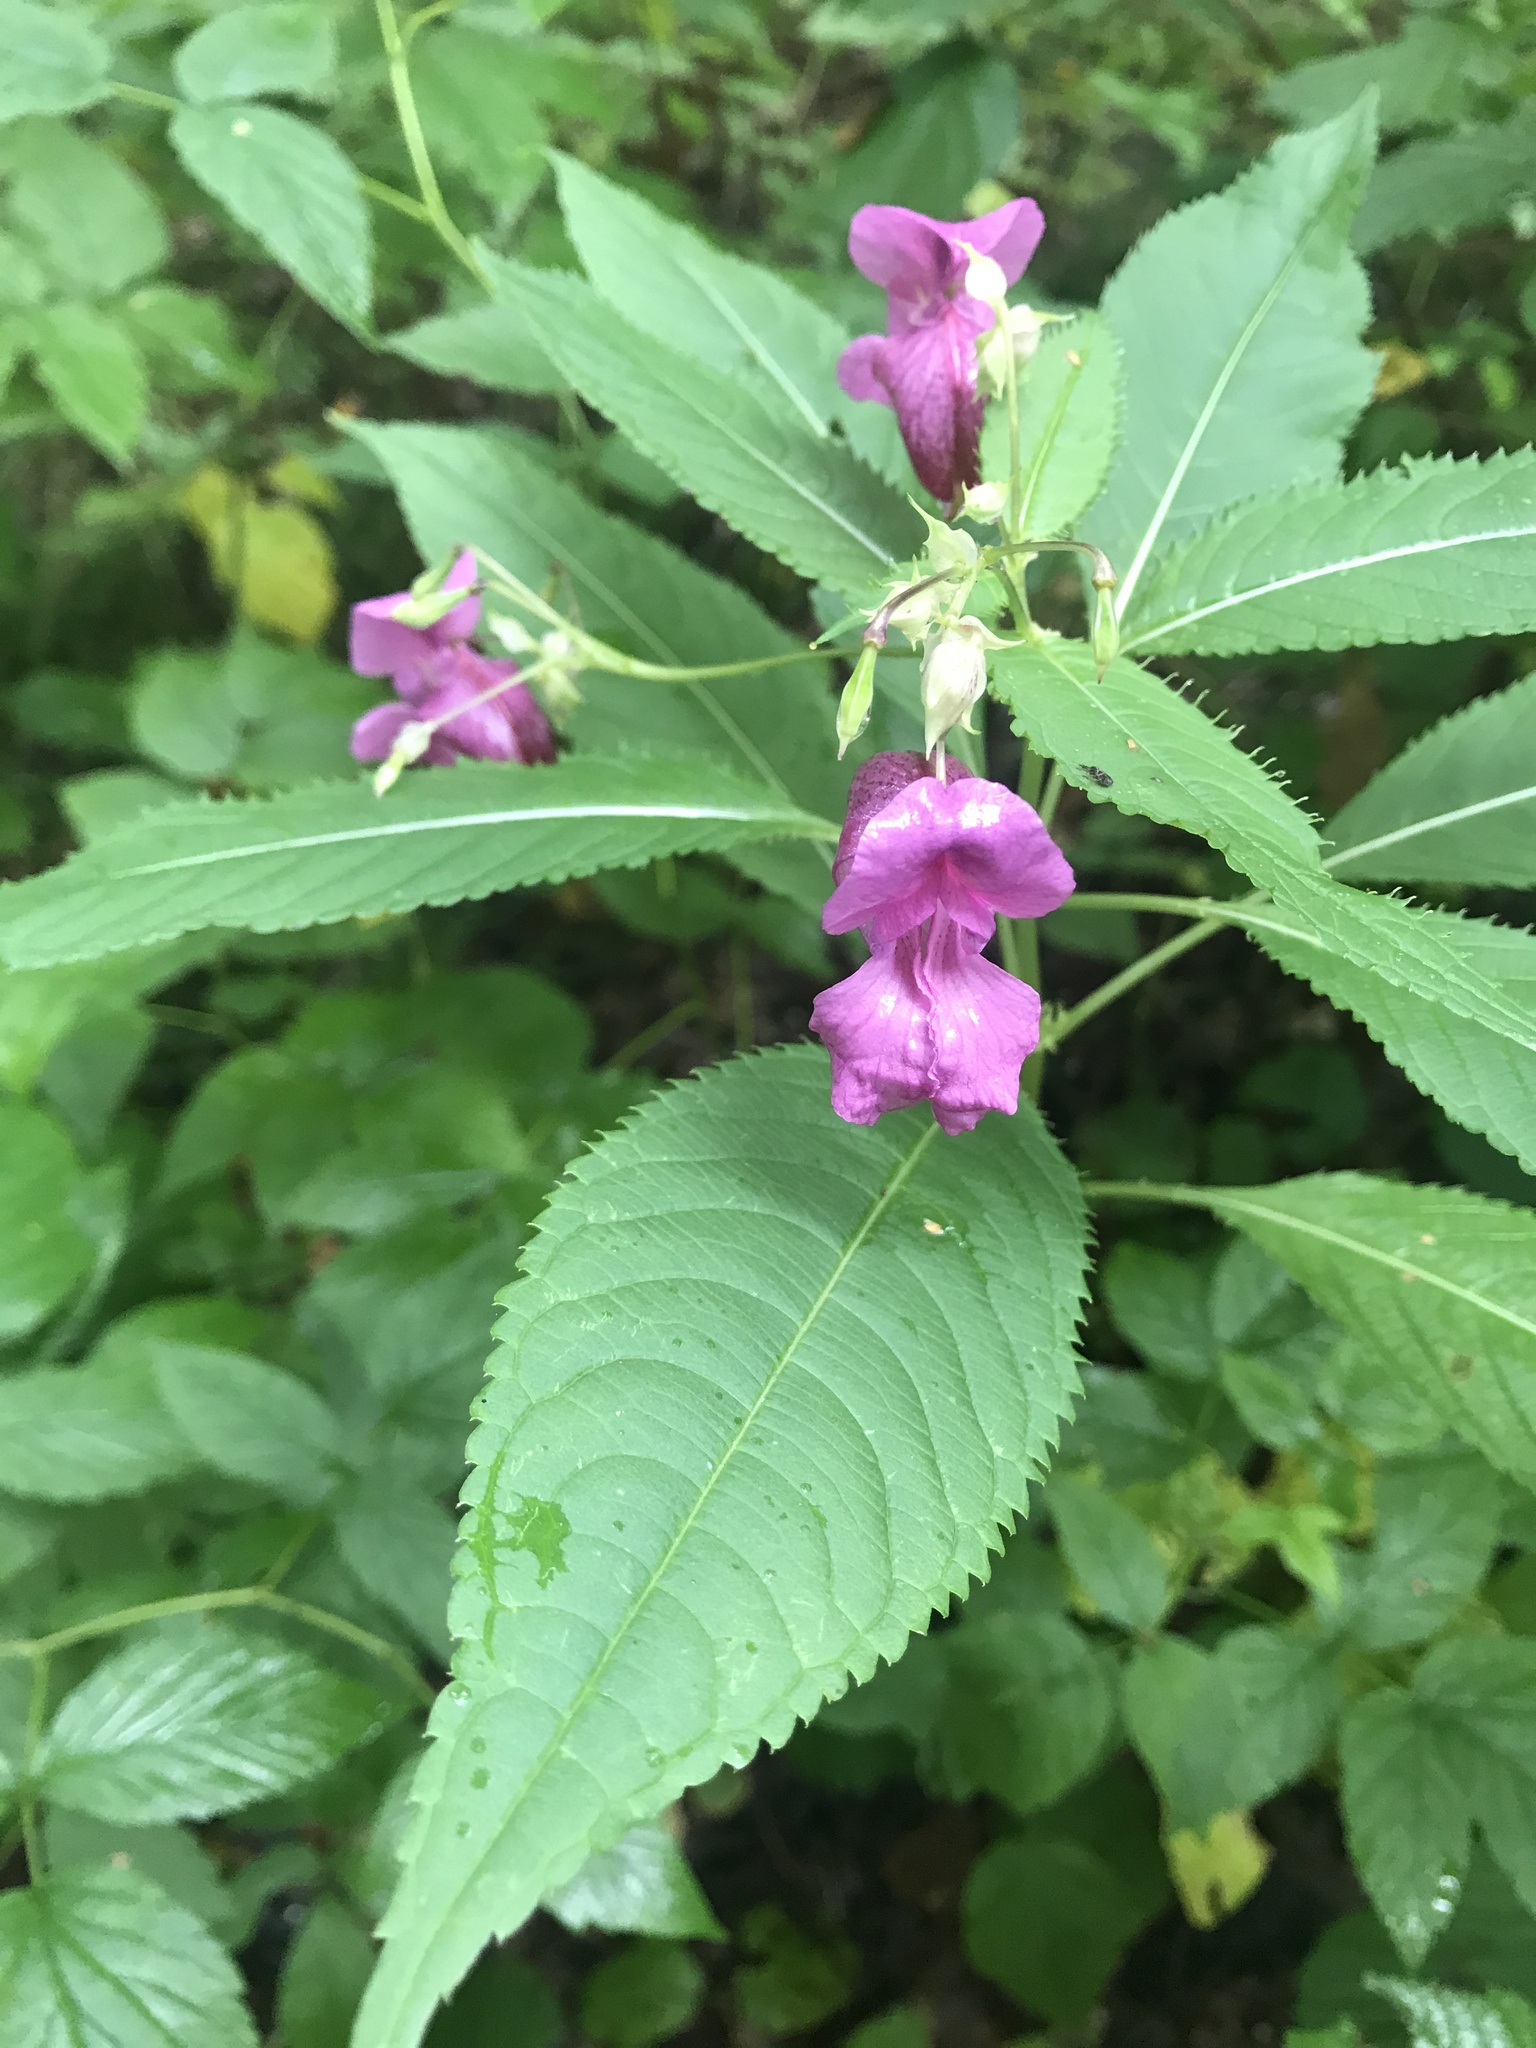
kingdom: Plantae
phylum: Tracheophyta
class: Magnoliopsida
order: Ericales
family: Balsaminaceae
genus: Impatiens
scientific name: Impatiens glandulifera
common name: Himalayan balsam
